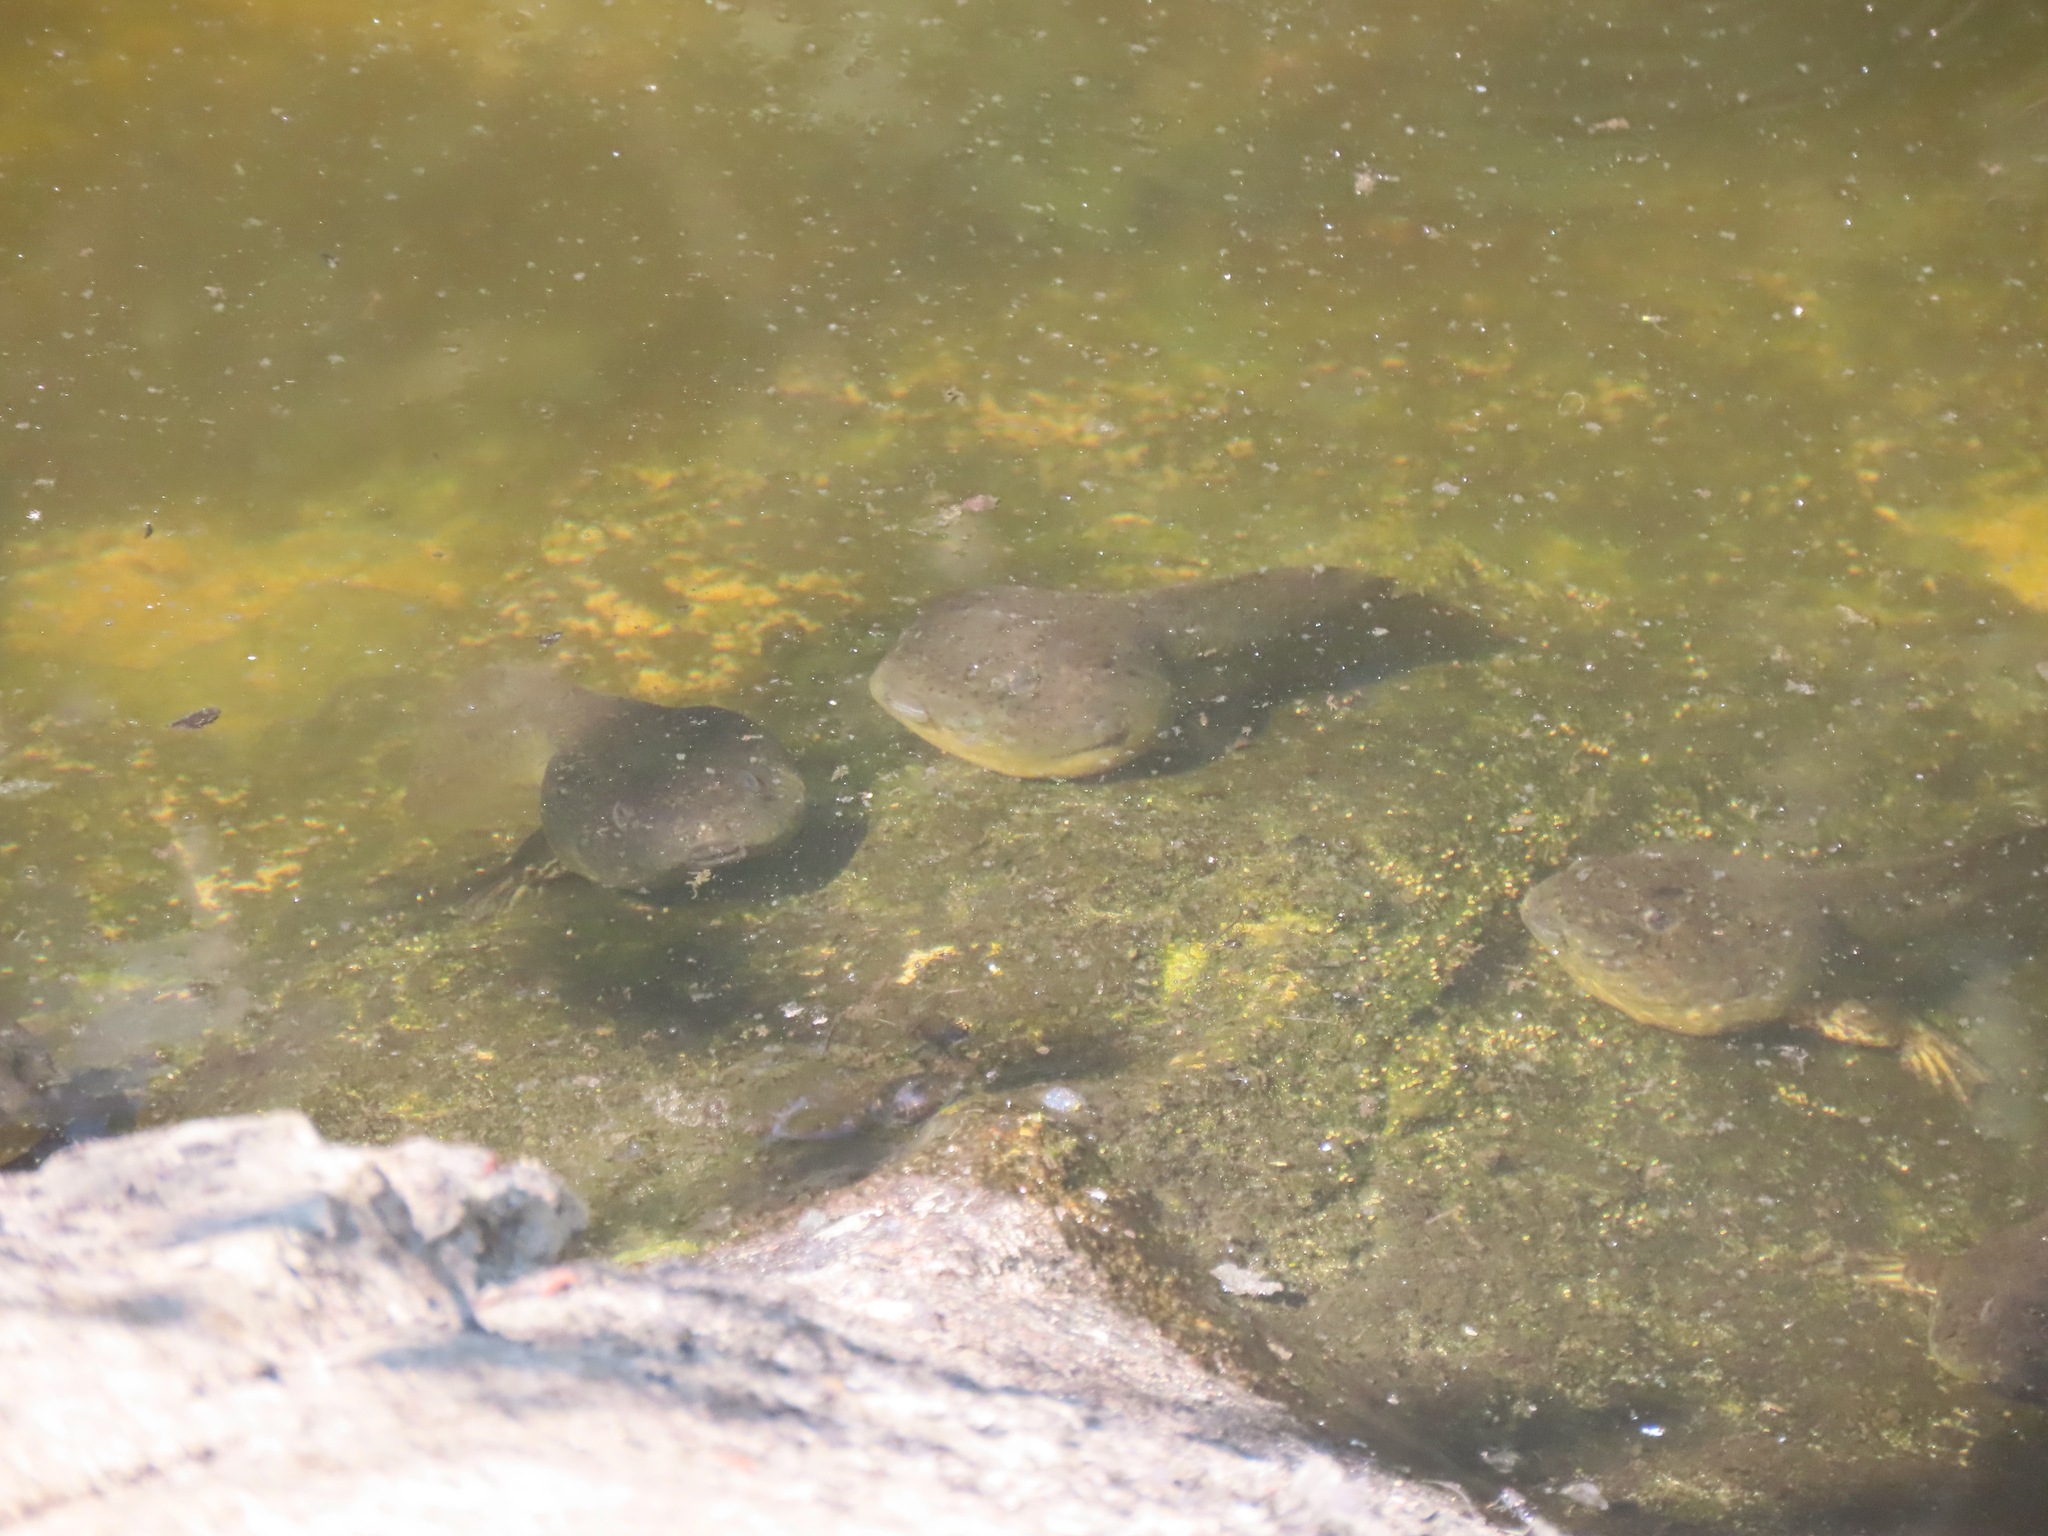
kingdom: Animalia
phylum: Chordata
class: Amphibia
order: Anura
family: Ranidae
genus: Lithobates
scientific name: Lithobates catesbeianus
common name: American bullfrog
